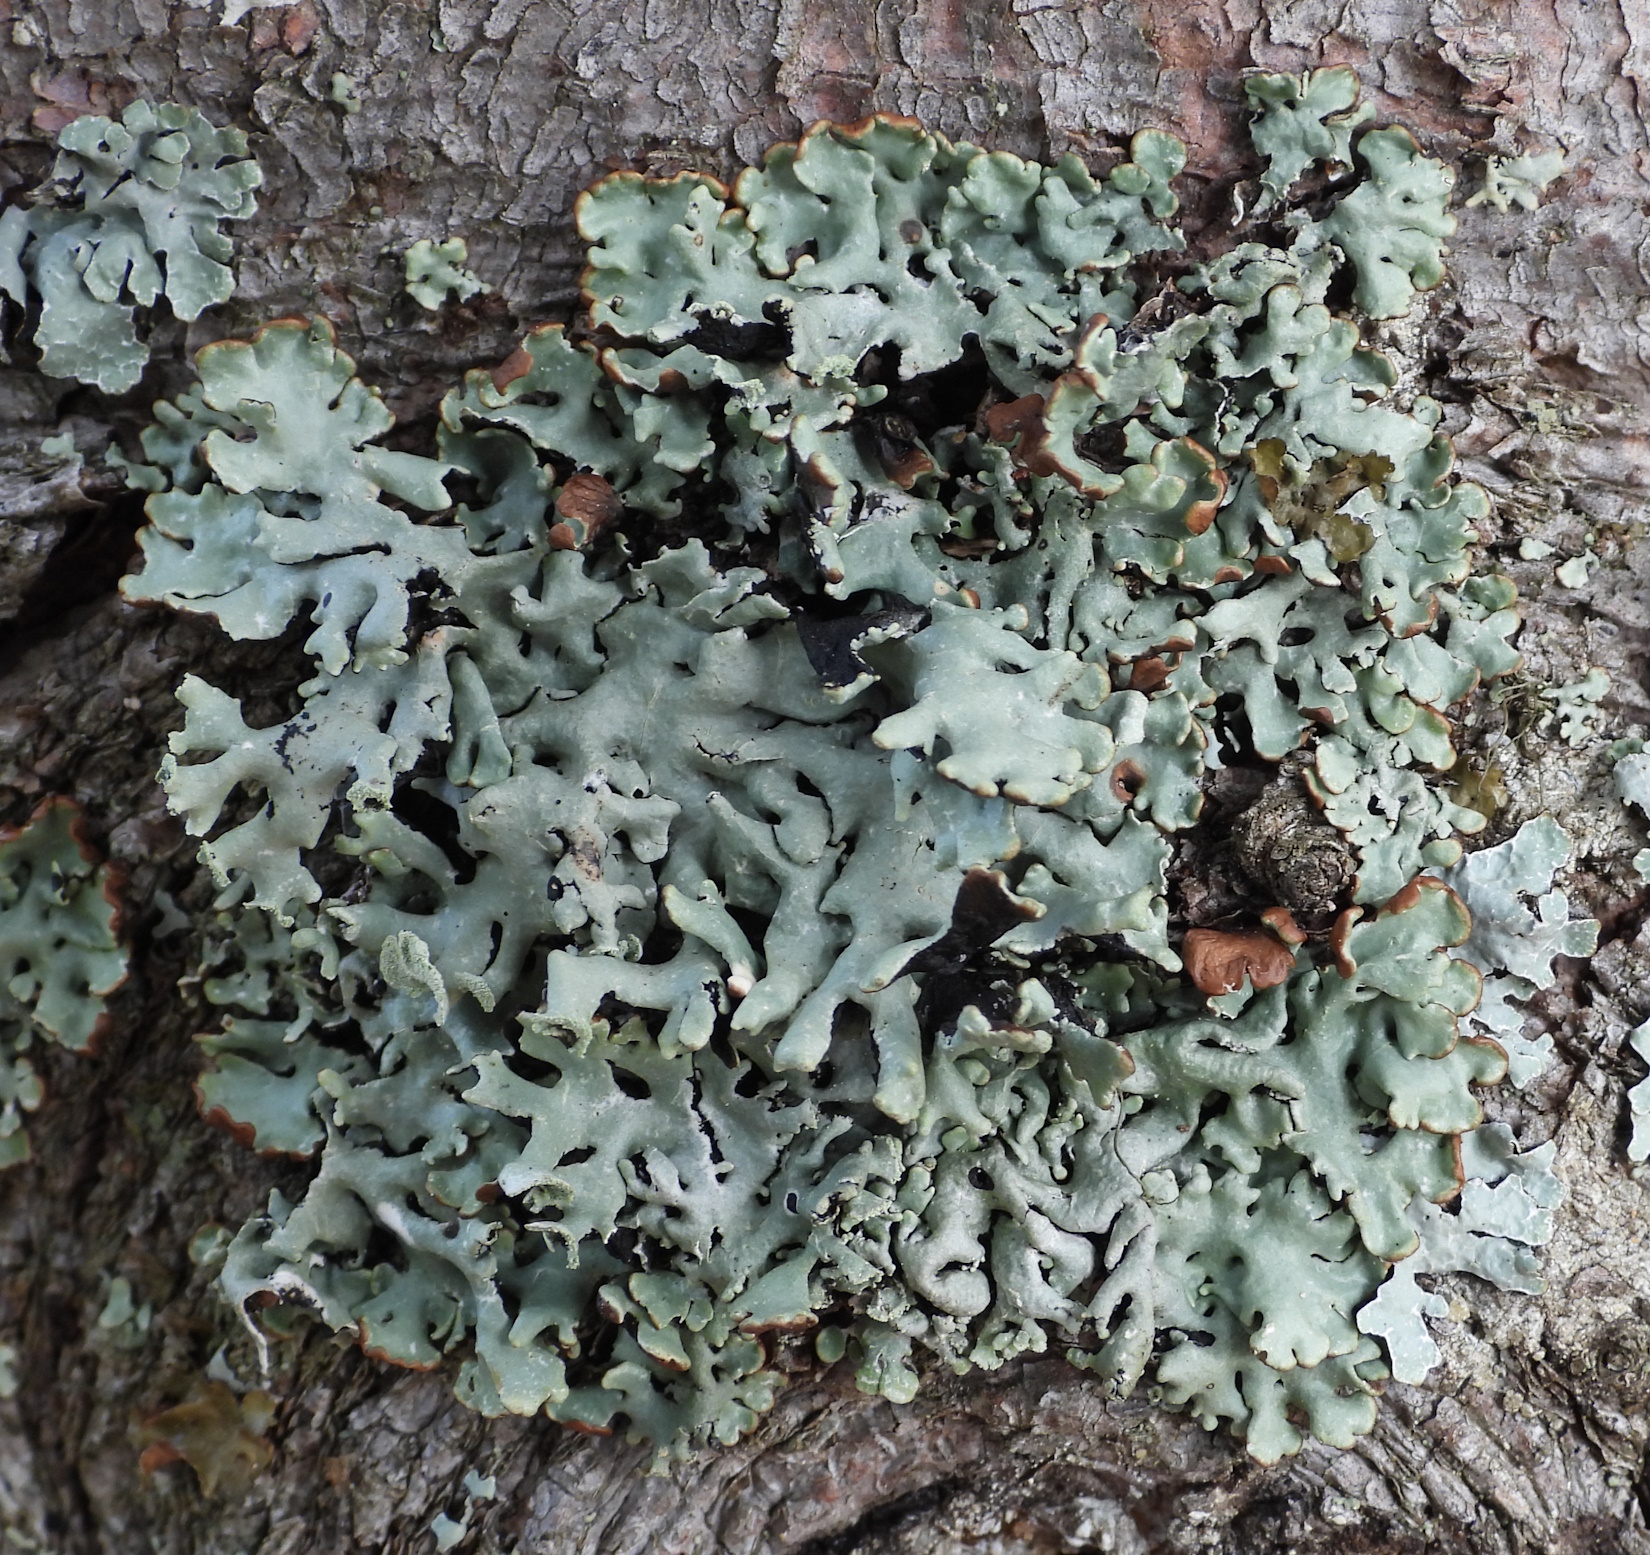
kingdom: Fungi
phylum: Ascomycota
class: Lecanoromycetes
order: Lecanorales
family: Parmeliaceae
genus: Hypogymnia
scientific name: Hypogymnia physodes
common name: Dark crottle
